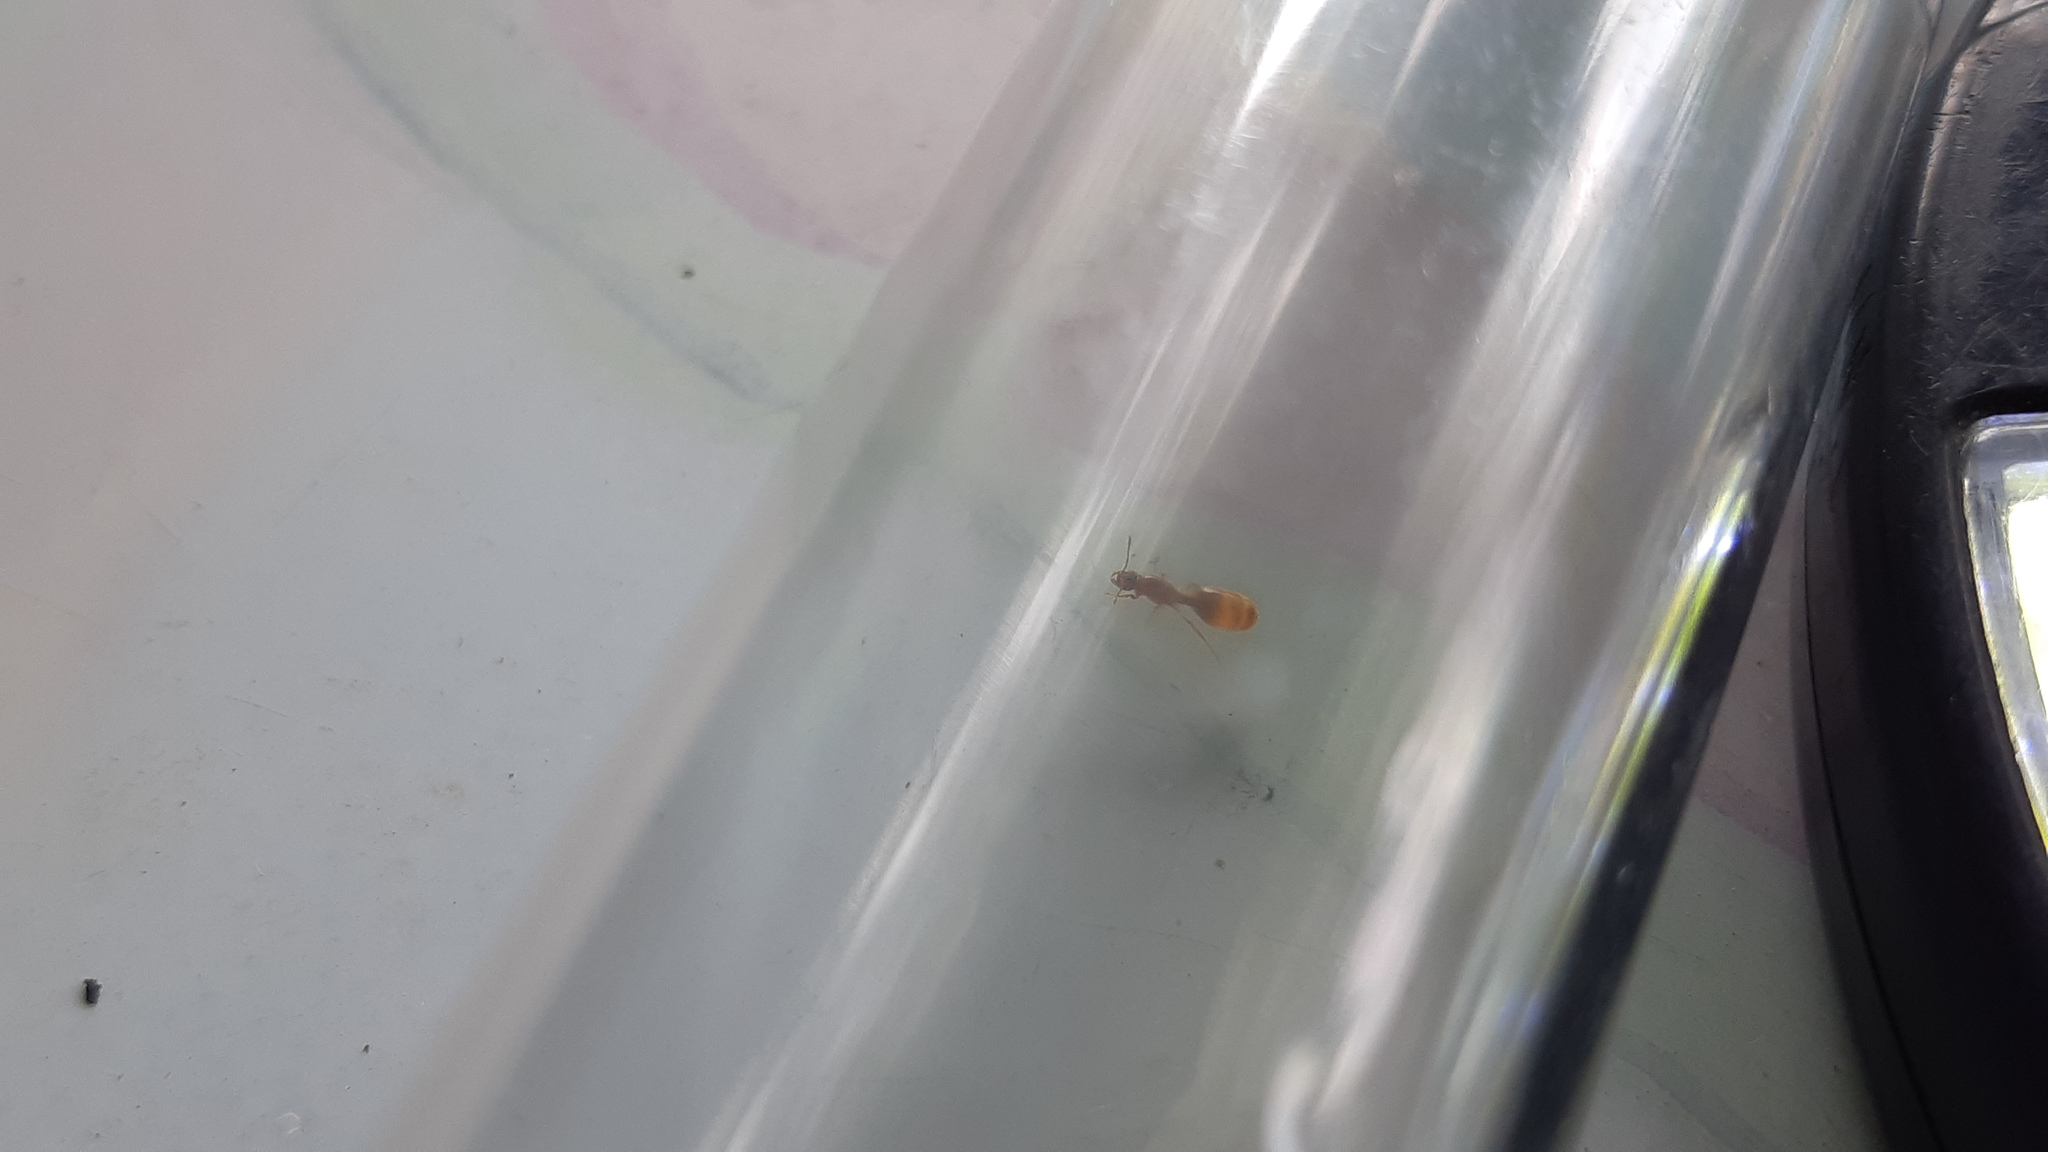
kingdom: Animalia
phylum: Arthropoda
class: Insecta
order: Hymenoptera
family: Formicidae
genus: Solenopsis
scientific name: Solenopsis molesta
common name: Thief ant
